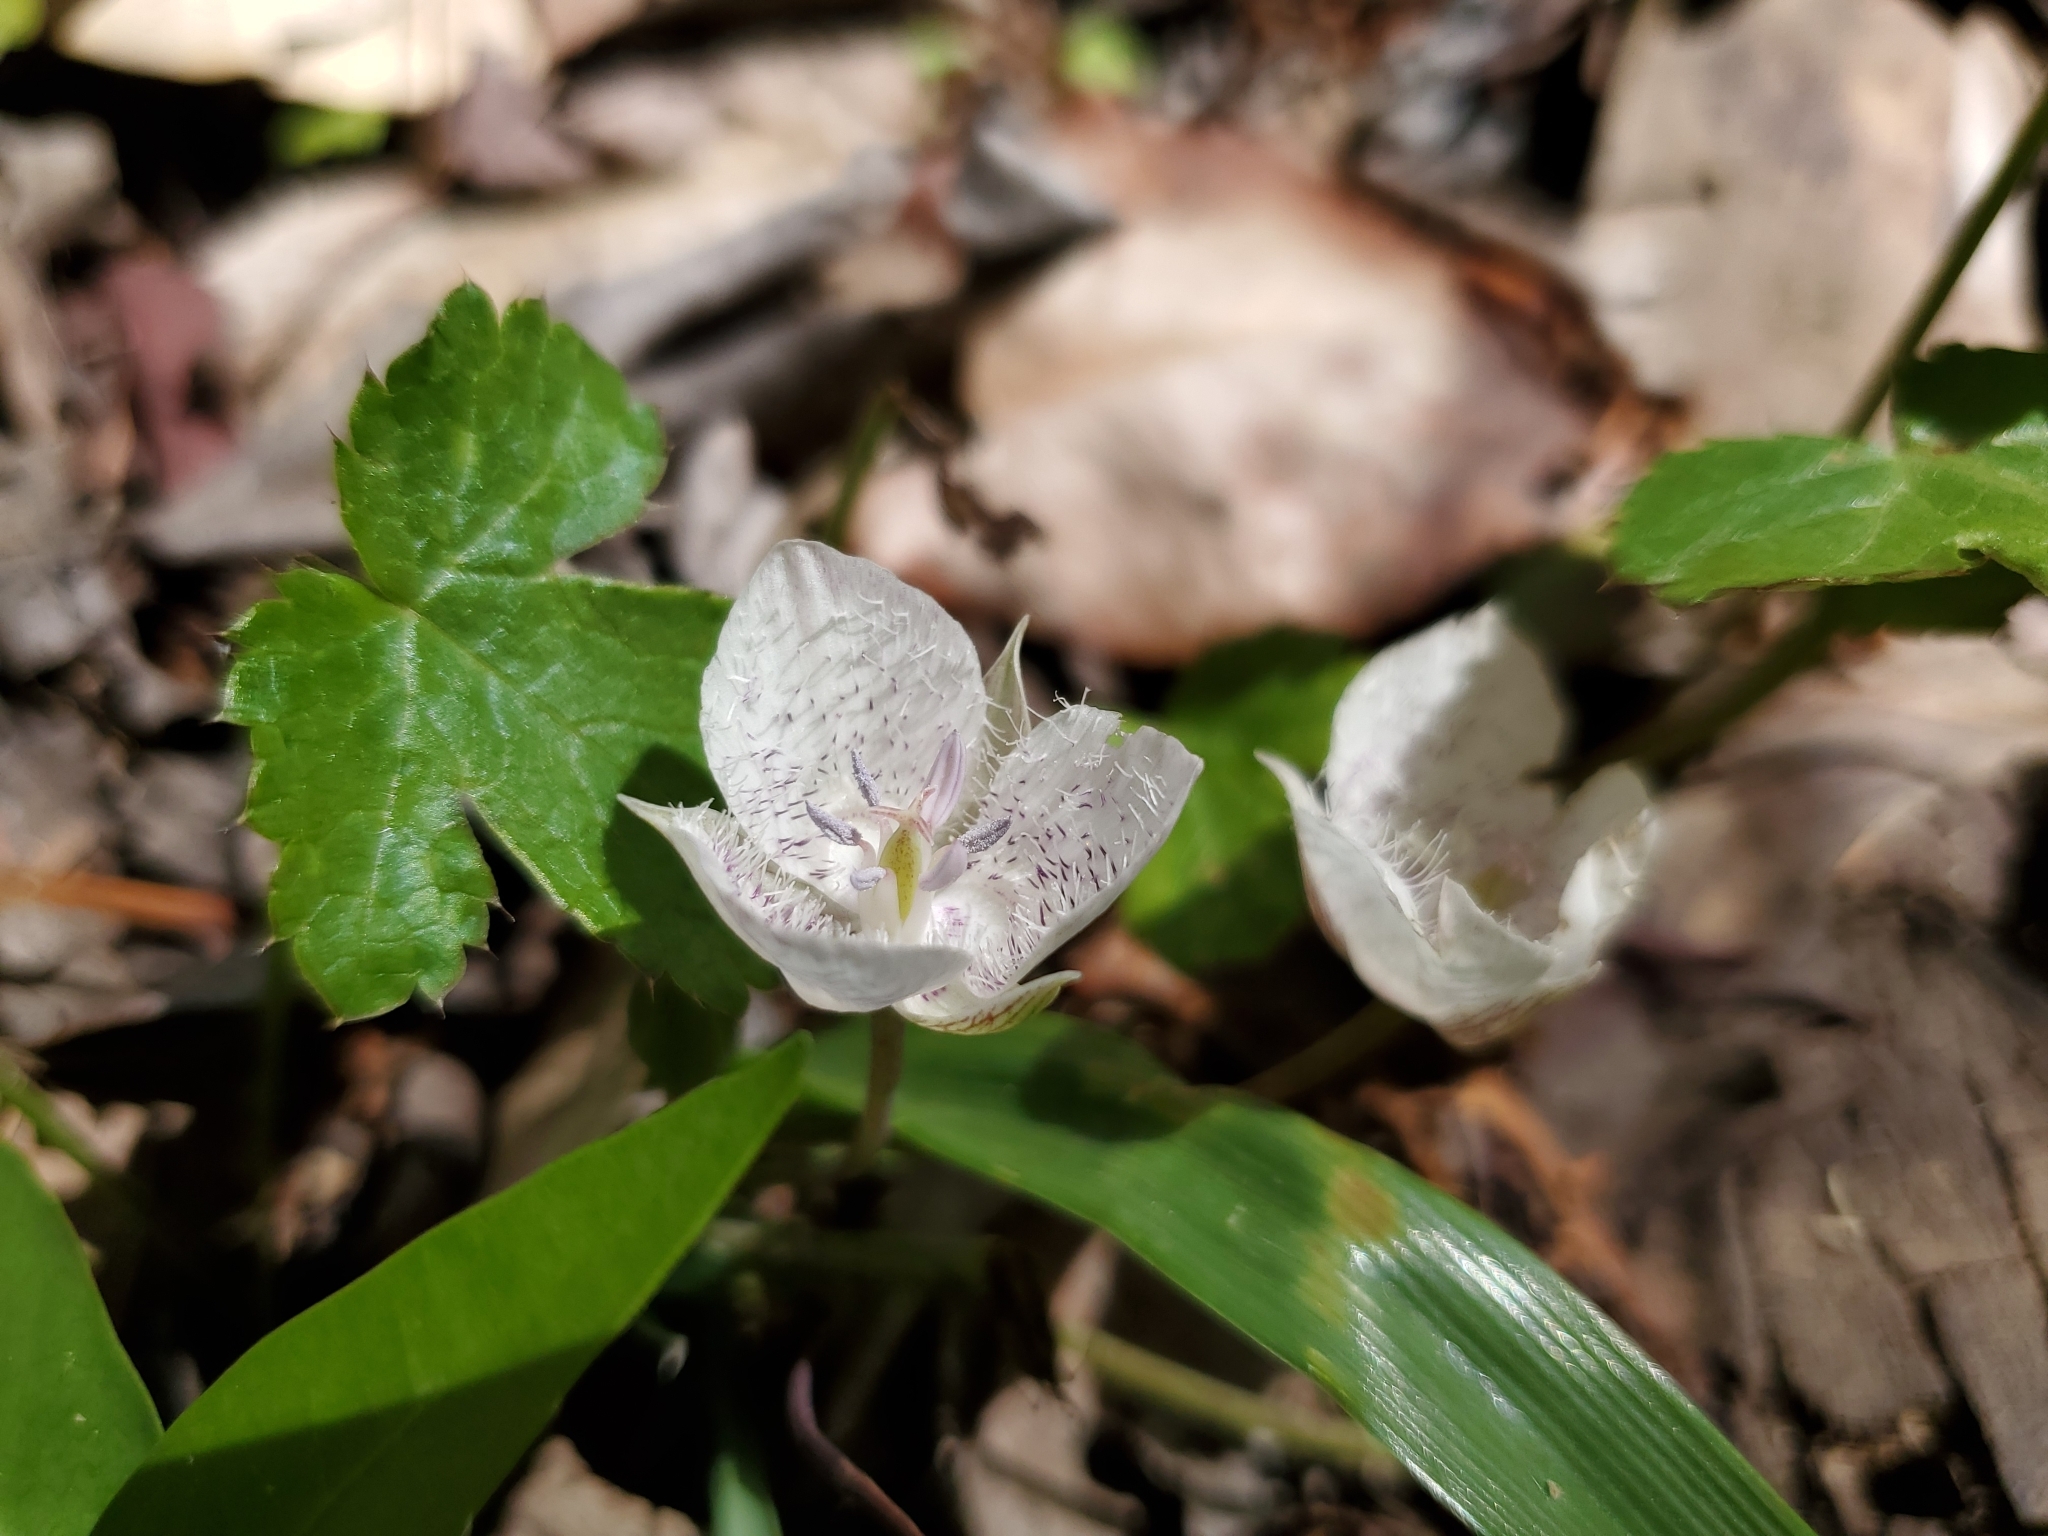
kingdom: Plantae
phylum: Tracheophyta
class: Liliopsida
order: Liliales
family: Liliaceae
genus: Calochortus
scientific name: Calochortus tolmiei
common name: Pussy-ears
